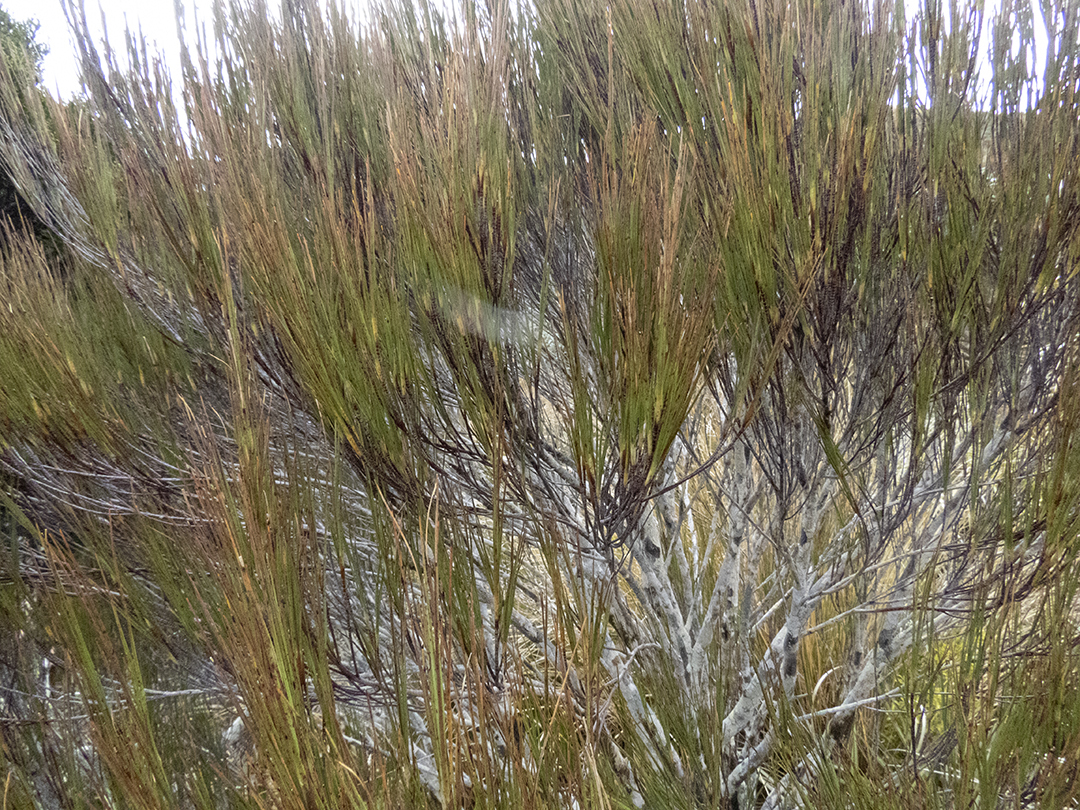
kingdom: Plantae
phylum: Tracheophyta
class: Magnoliopsida
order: Ericales
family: Ericaceae
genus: Dracophyllum
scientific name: Dracophyllum longifolium
